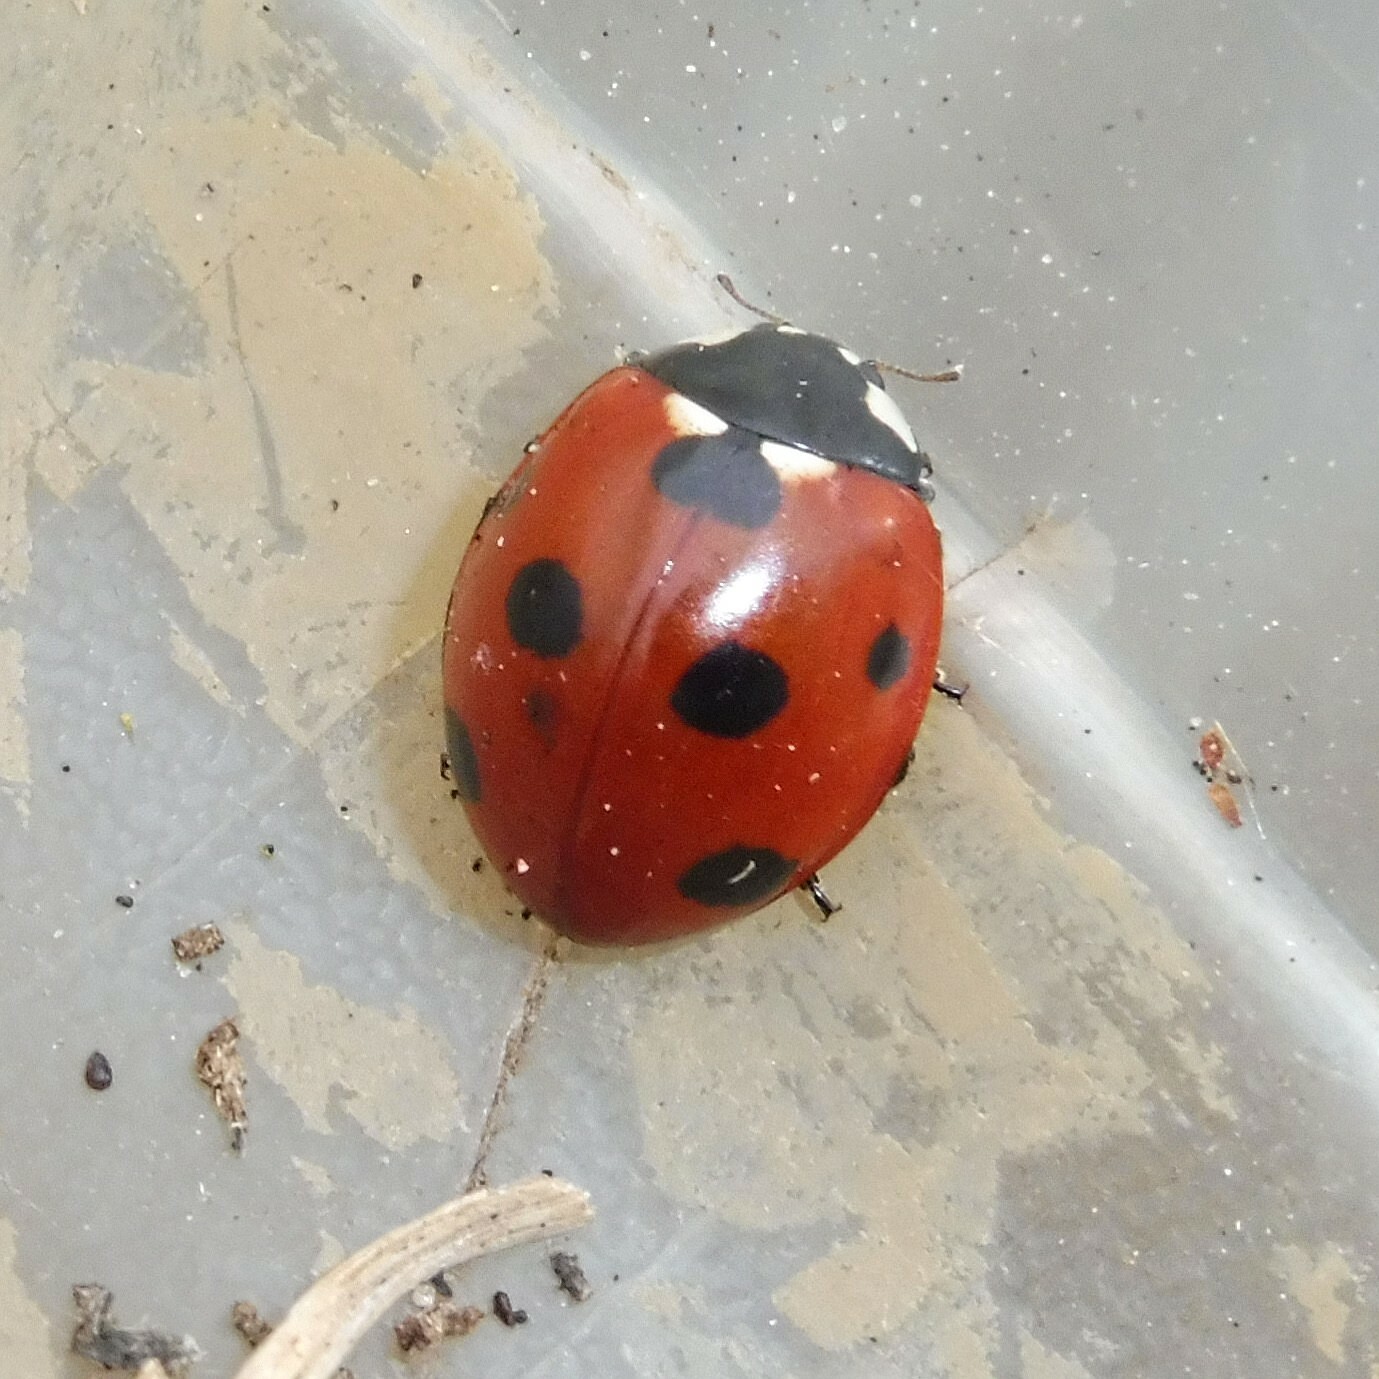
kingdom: Animalia
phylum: Arthropoda
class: Insecta
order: Coleoptera
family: Coccinellidae
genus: Coccinella
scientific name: Coccinella septempunctata
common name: Sevenspotted lady beetle
